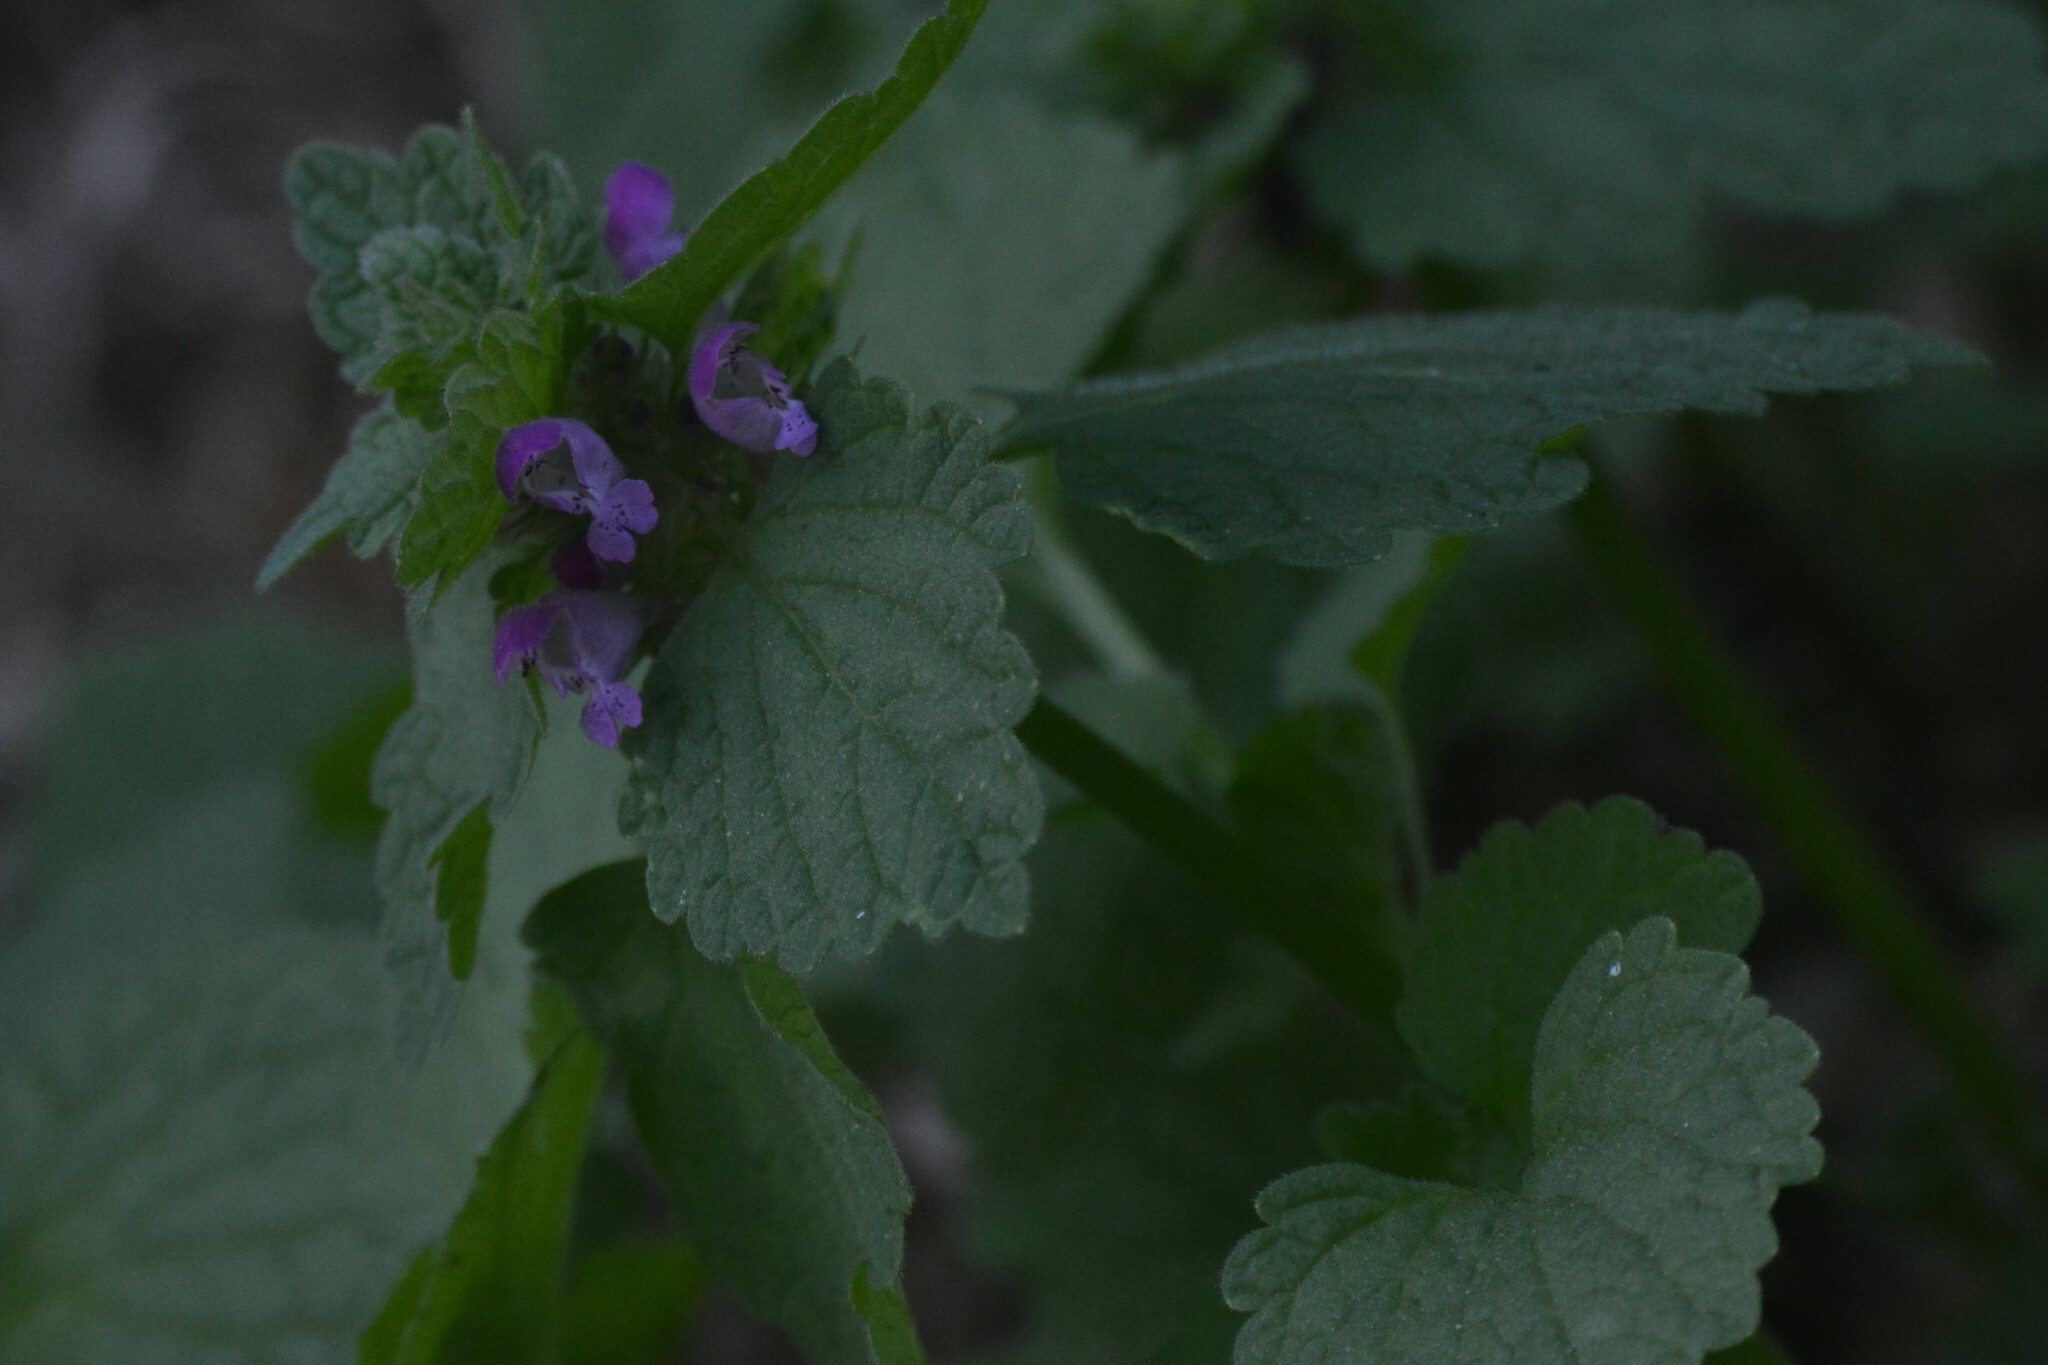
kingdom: Plantae
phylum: Tracheophyta
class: Magnoliopsida
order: Lamiales
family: Lamiaceae
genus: Lamium
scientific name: Lamium purpureum
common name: Red dead-nettle
